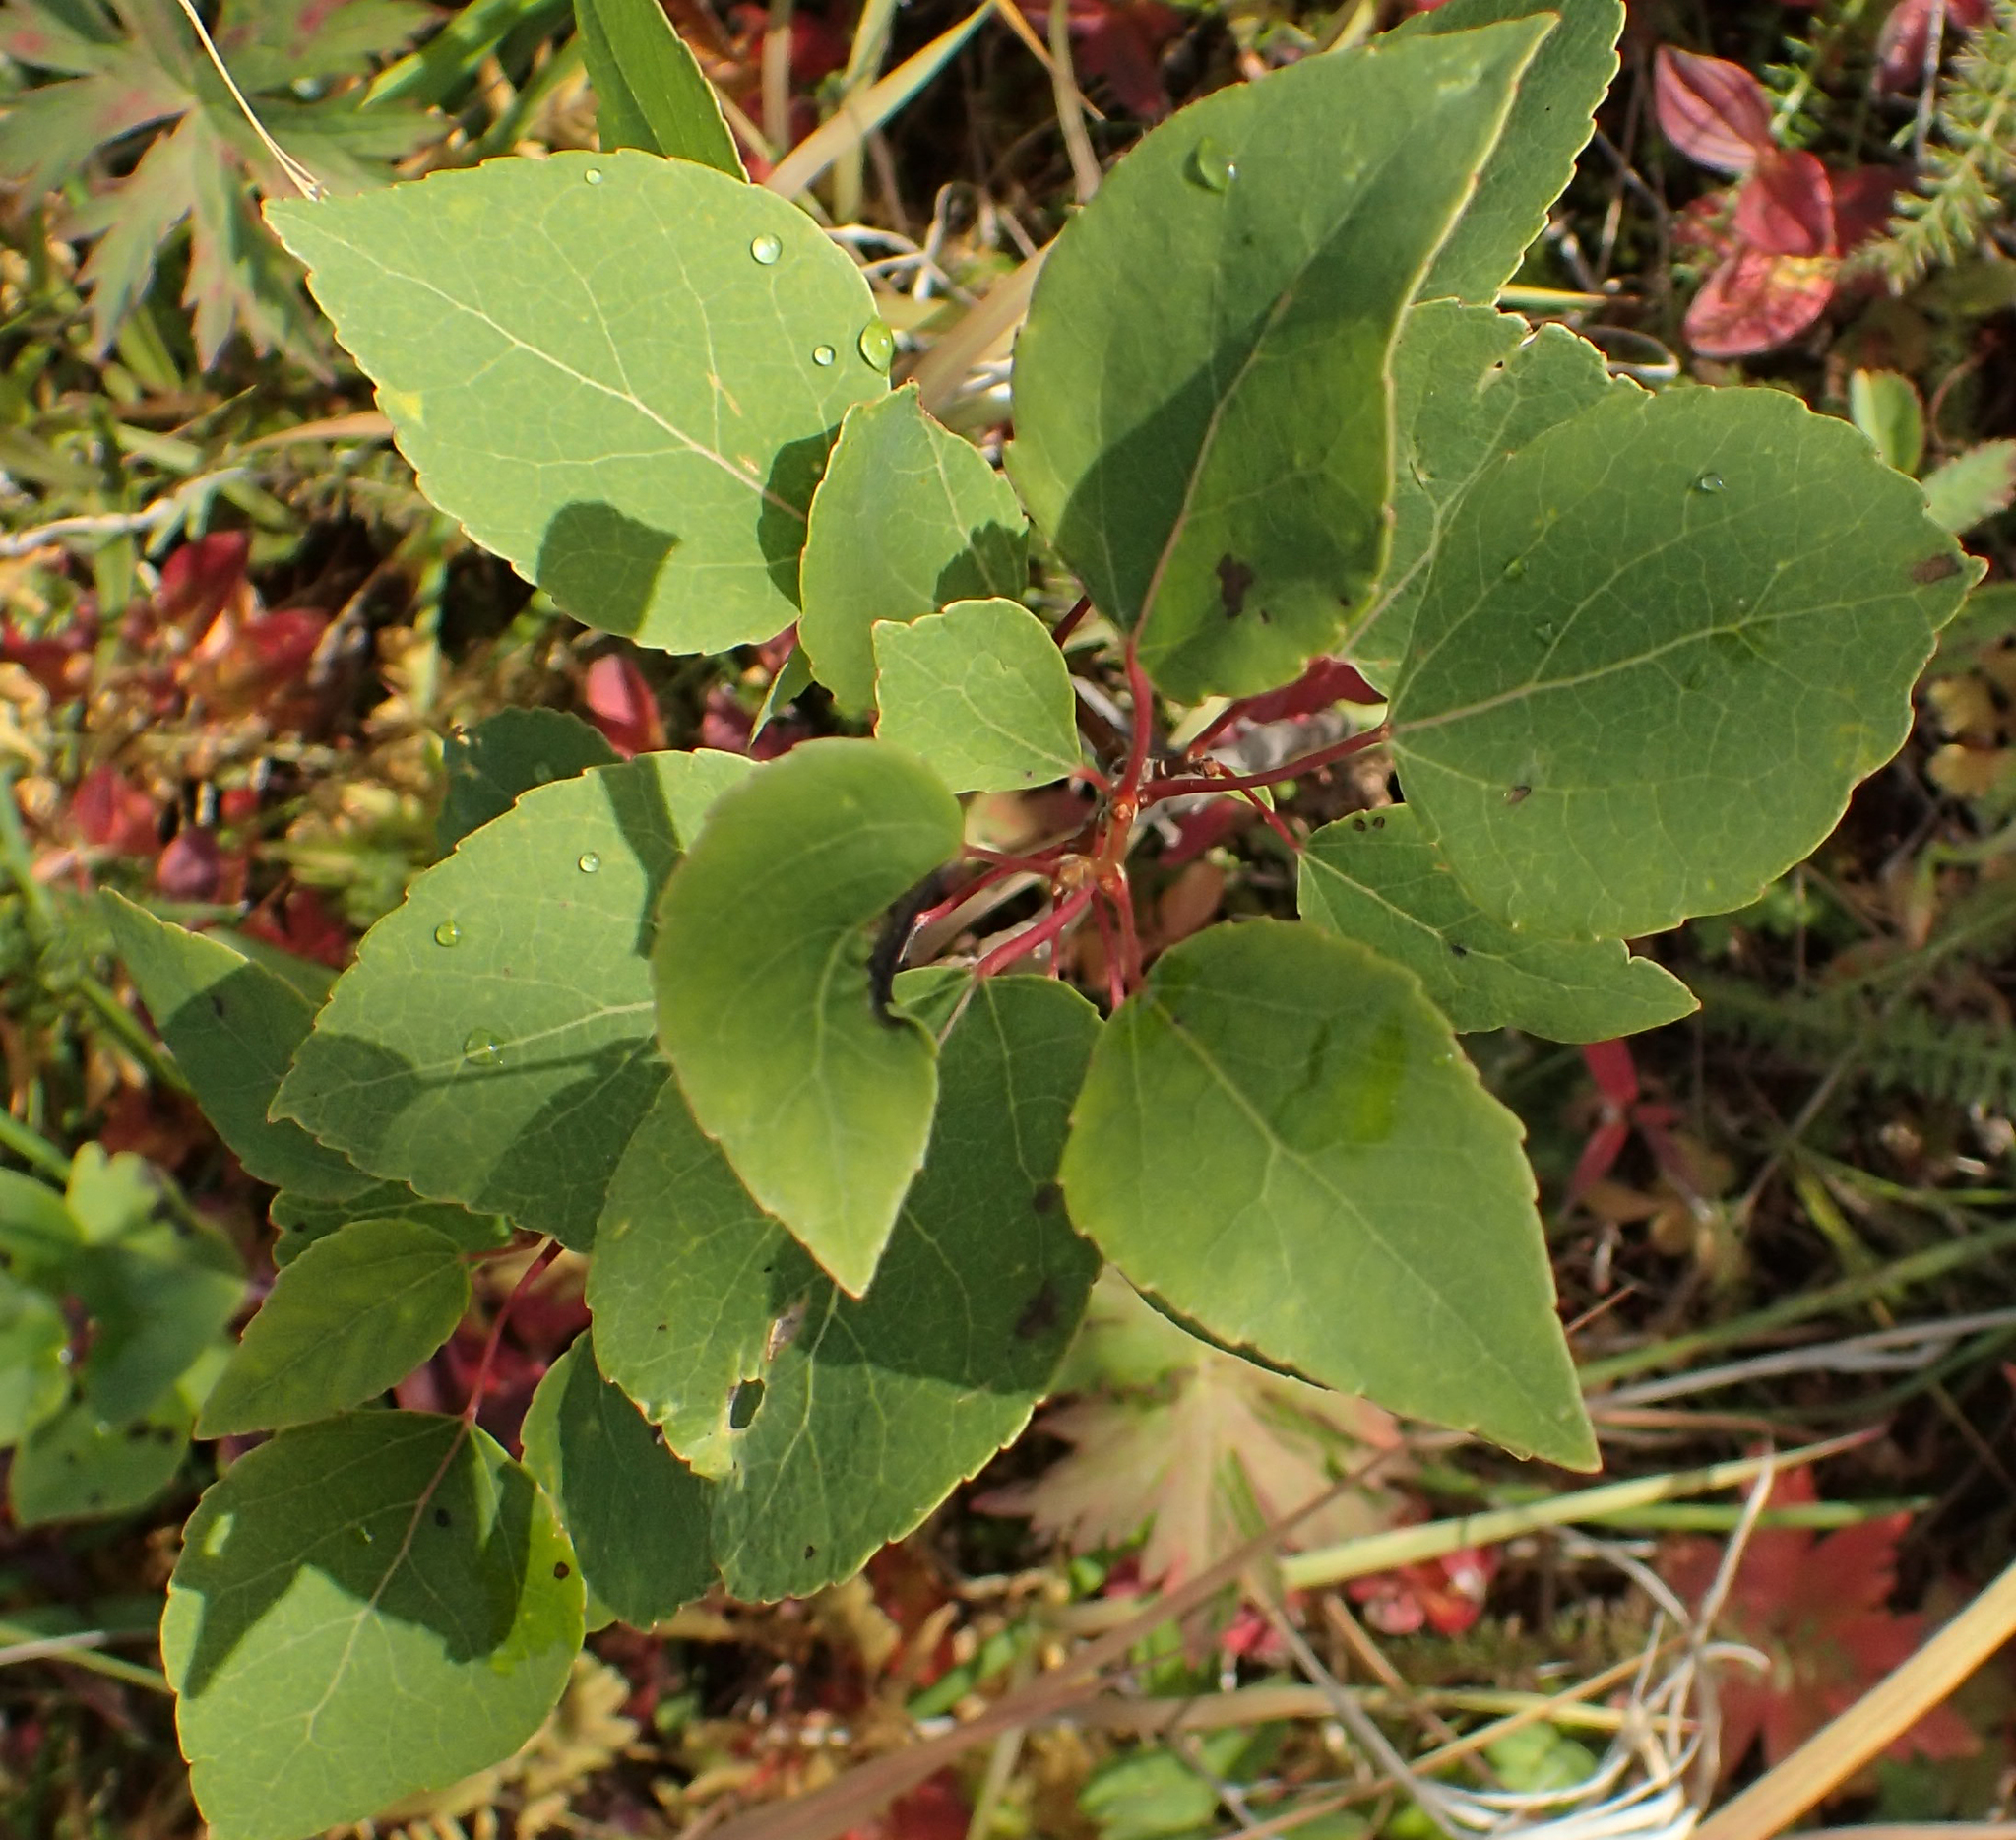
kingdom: Plantae
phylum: Tracheophyta
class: Magnoliopsida
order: Malpighiales
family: Salicaceae
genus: Populus
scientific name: Populus tremuloides
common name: Quaking aspen
